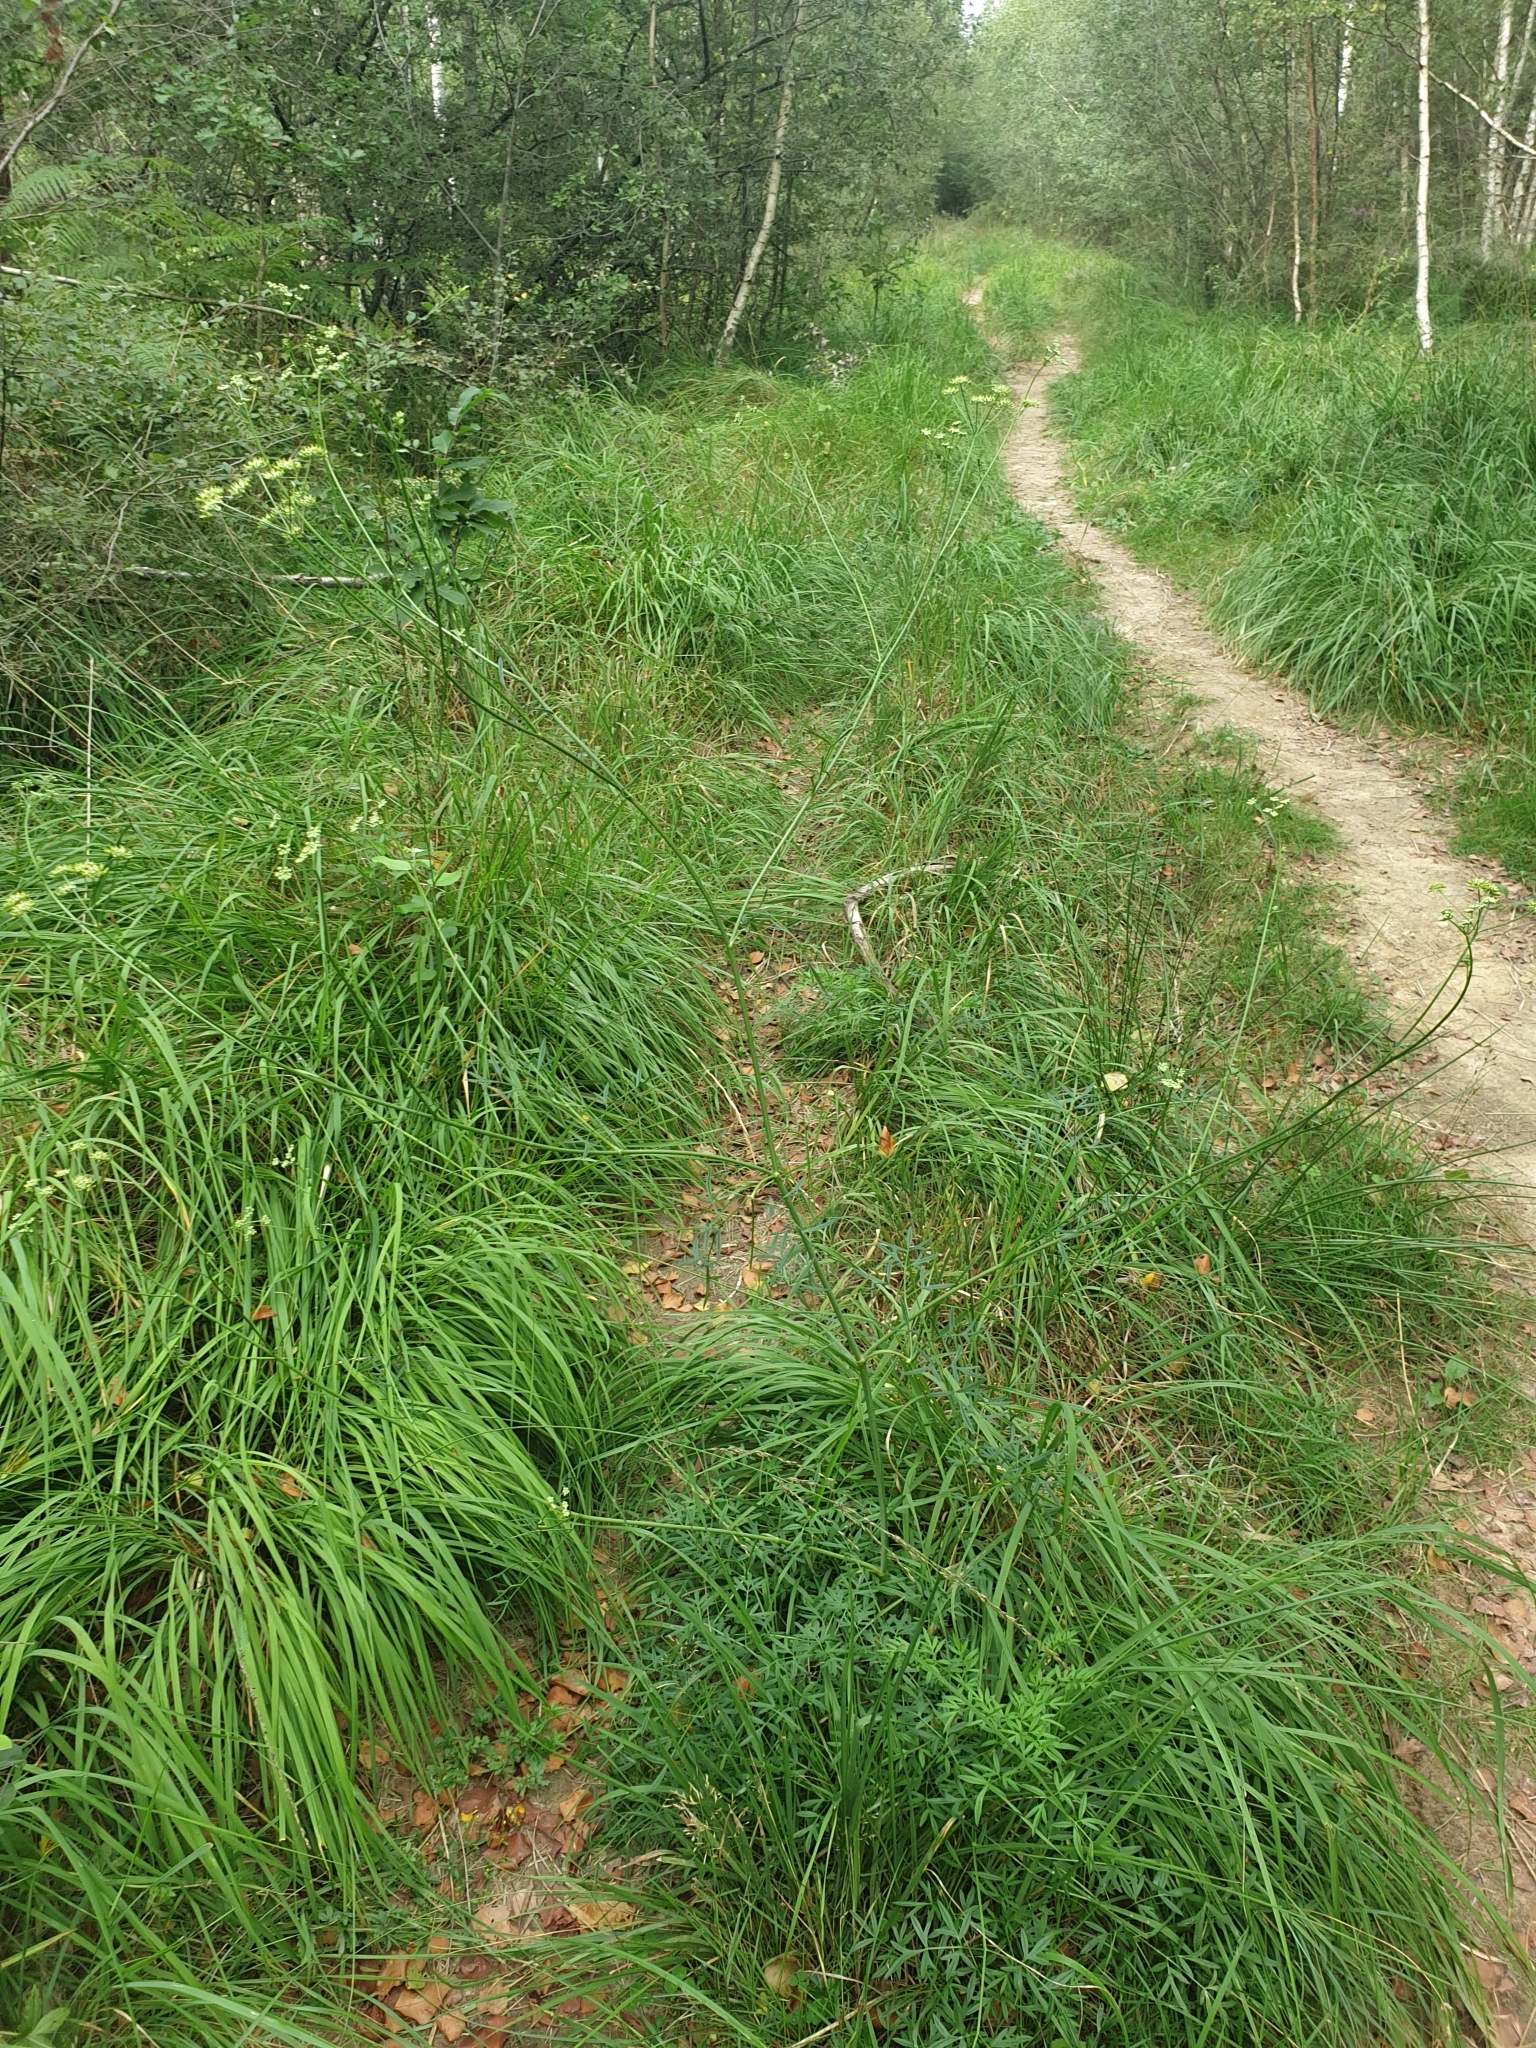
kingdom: Plantae
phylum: Tracheophyta
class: Magnoliopsida
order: Apiales
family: Apiaceae
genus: Silaum
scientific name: Silaum silaus
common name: Pepper-saxifrage
